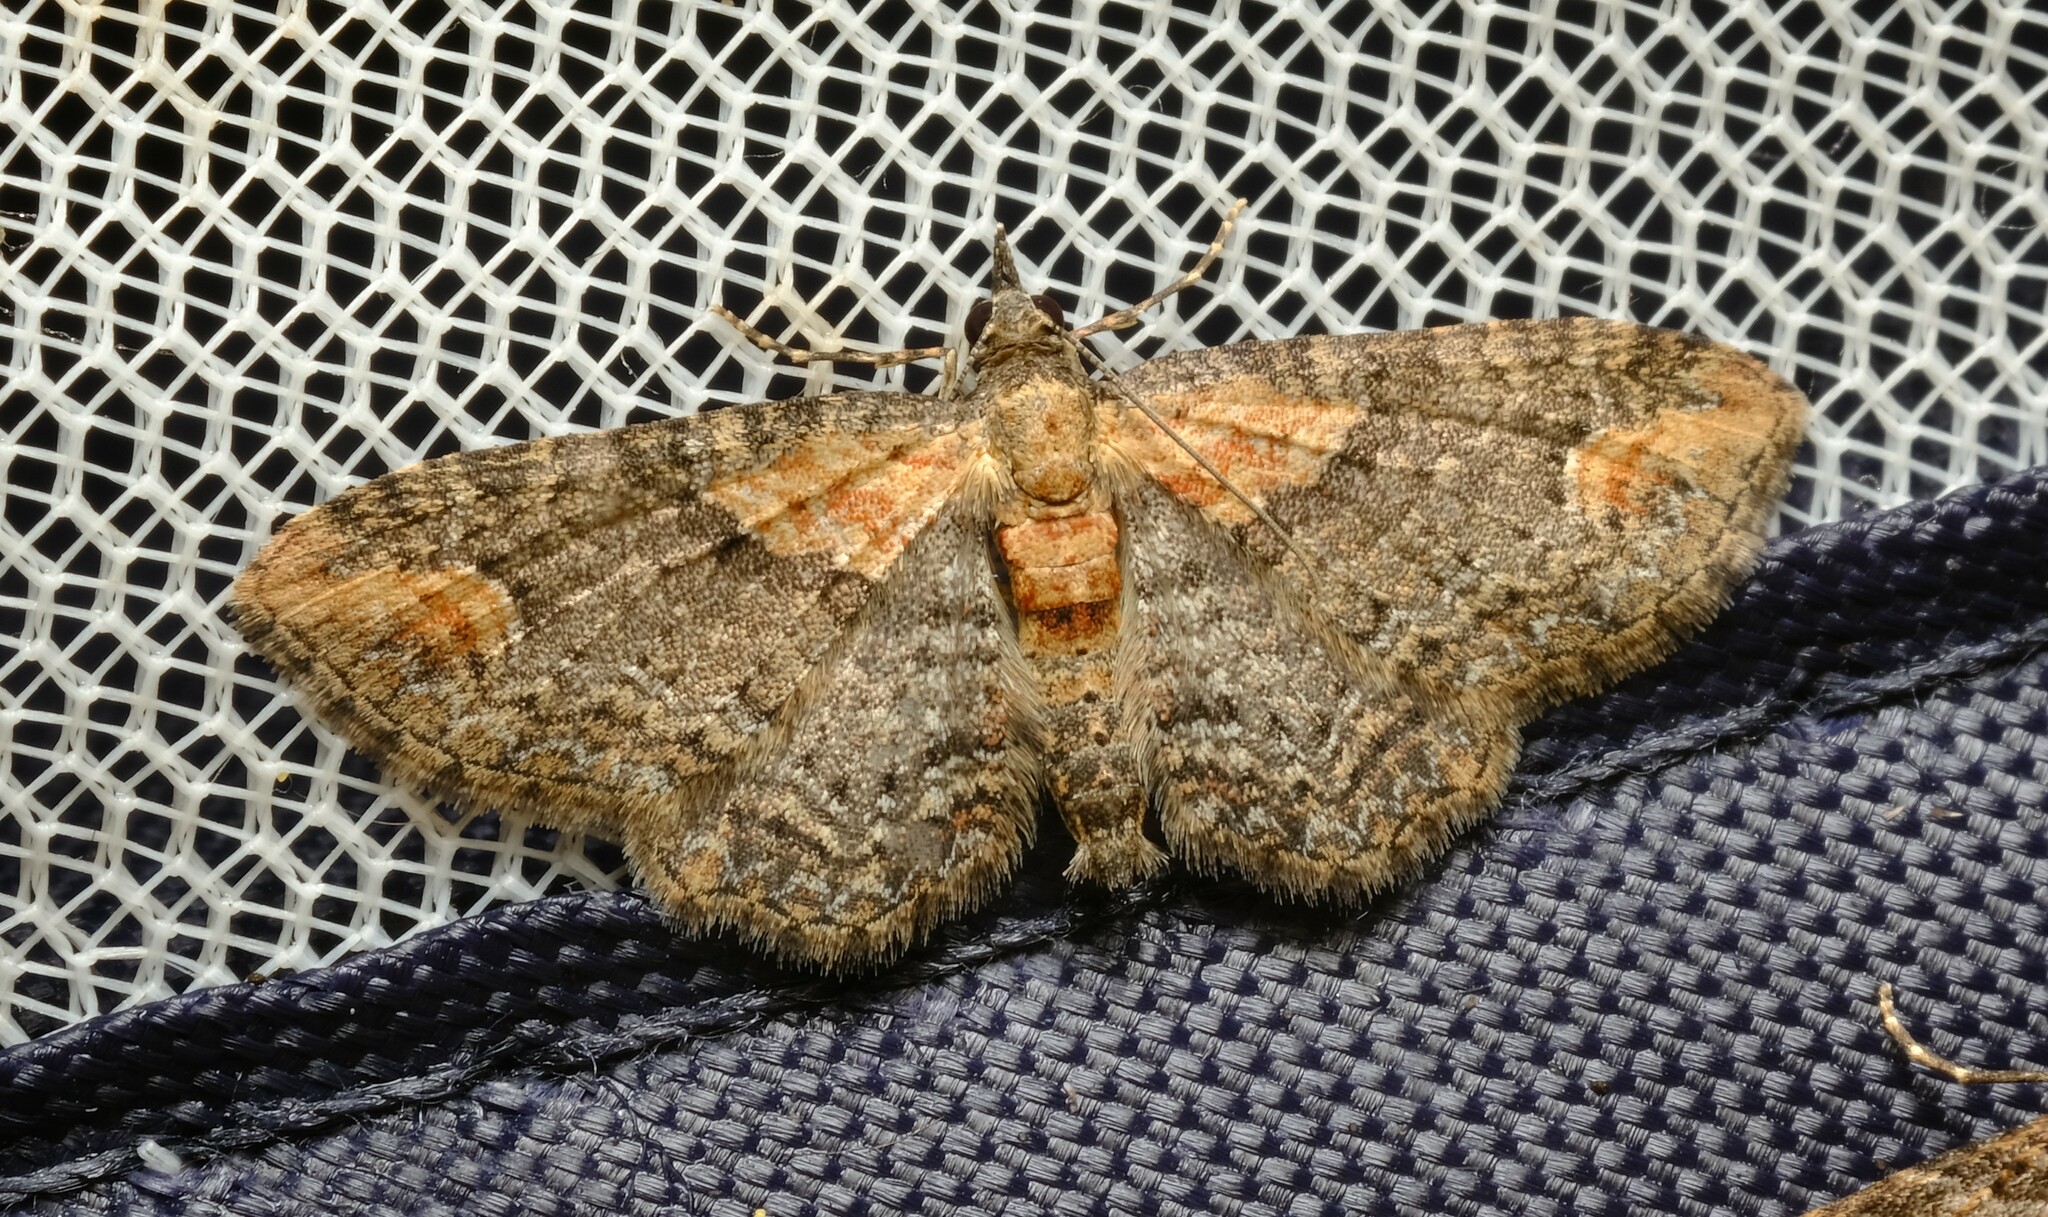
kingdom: Animalia
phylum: Arthropoda
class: Insecta
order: Lepidoptera
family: Geometridae
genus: Pasiphilodes
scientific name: Pasiphilodes testulata
